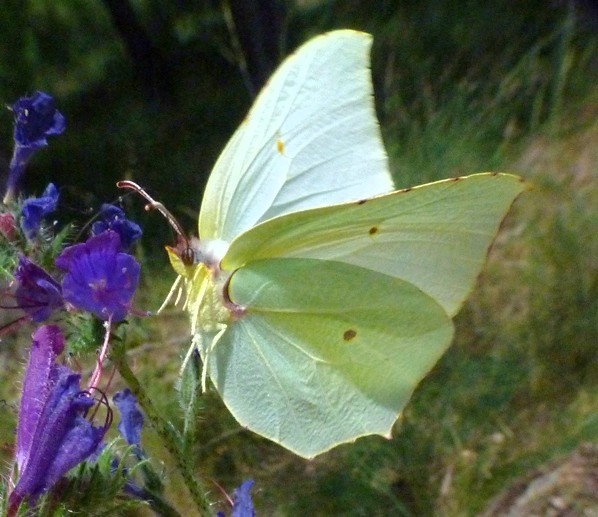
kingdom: Animalia
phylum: Arthropoda
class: Insecta
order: Lepidoptera
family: Pieridae
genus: Gonepteryx
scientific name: Gonepteryx cleopatra
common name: Cleopatra
